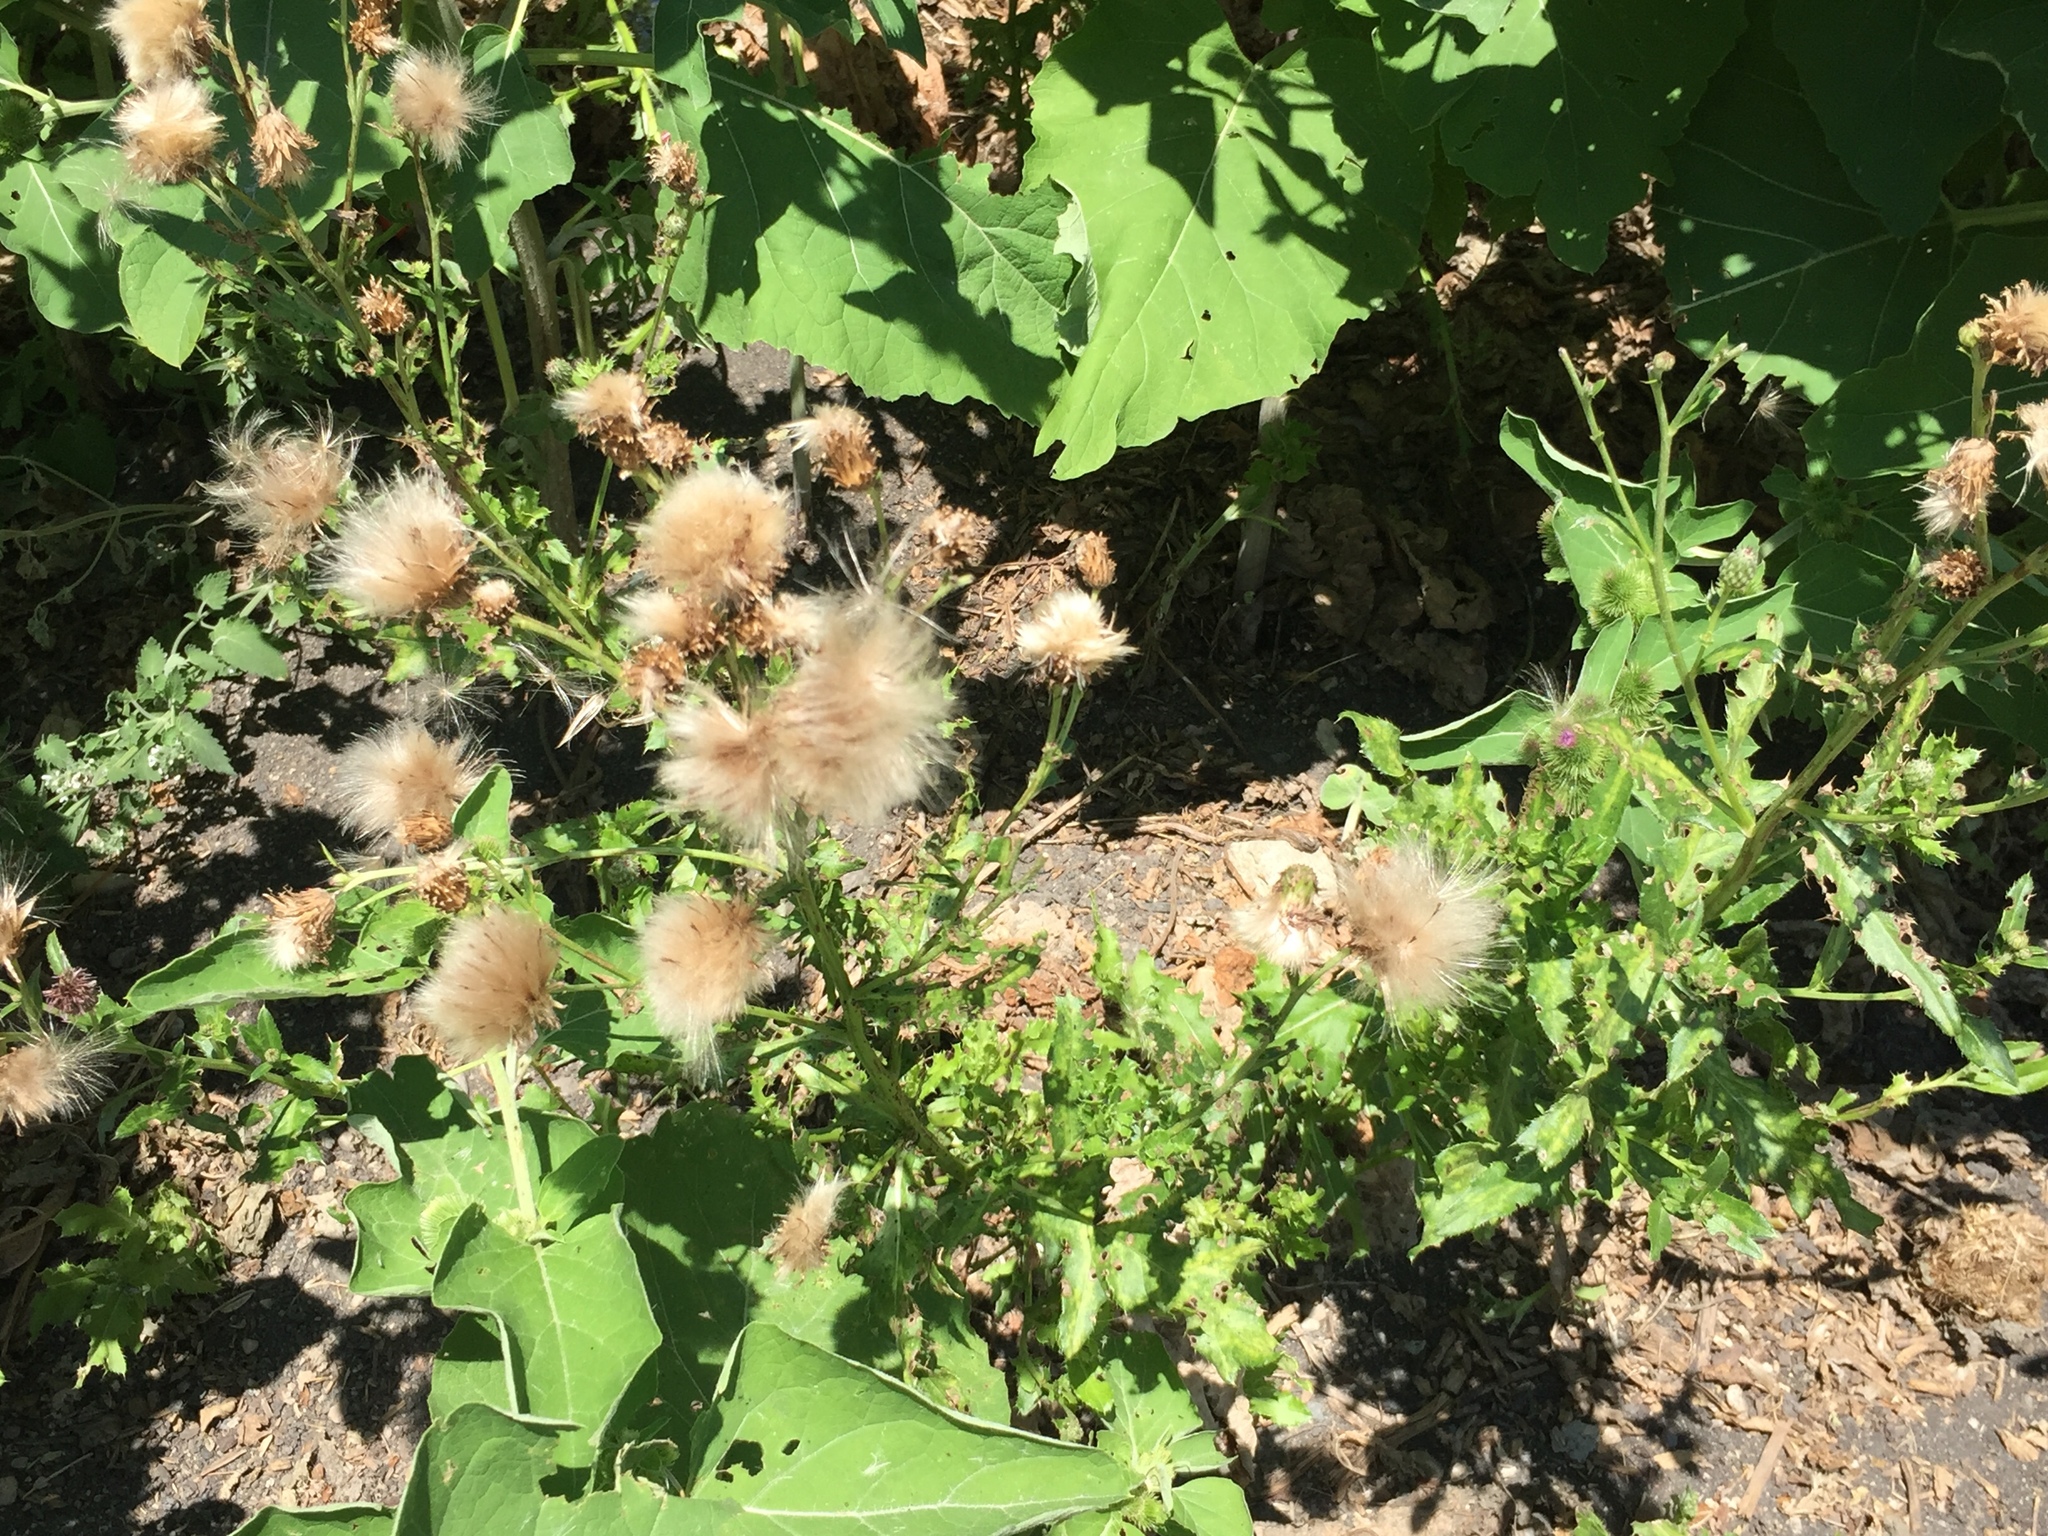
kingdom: Plantae
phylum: Tracheophyta
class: Magnoliopsida
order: Asterales
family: Asteraceae
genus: Cirsium
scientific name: Cirsium arvense
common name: Creeping thistle
